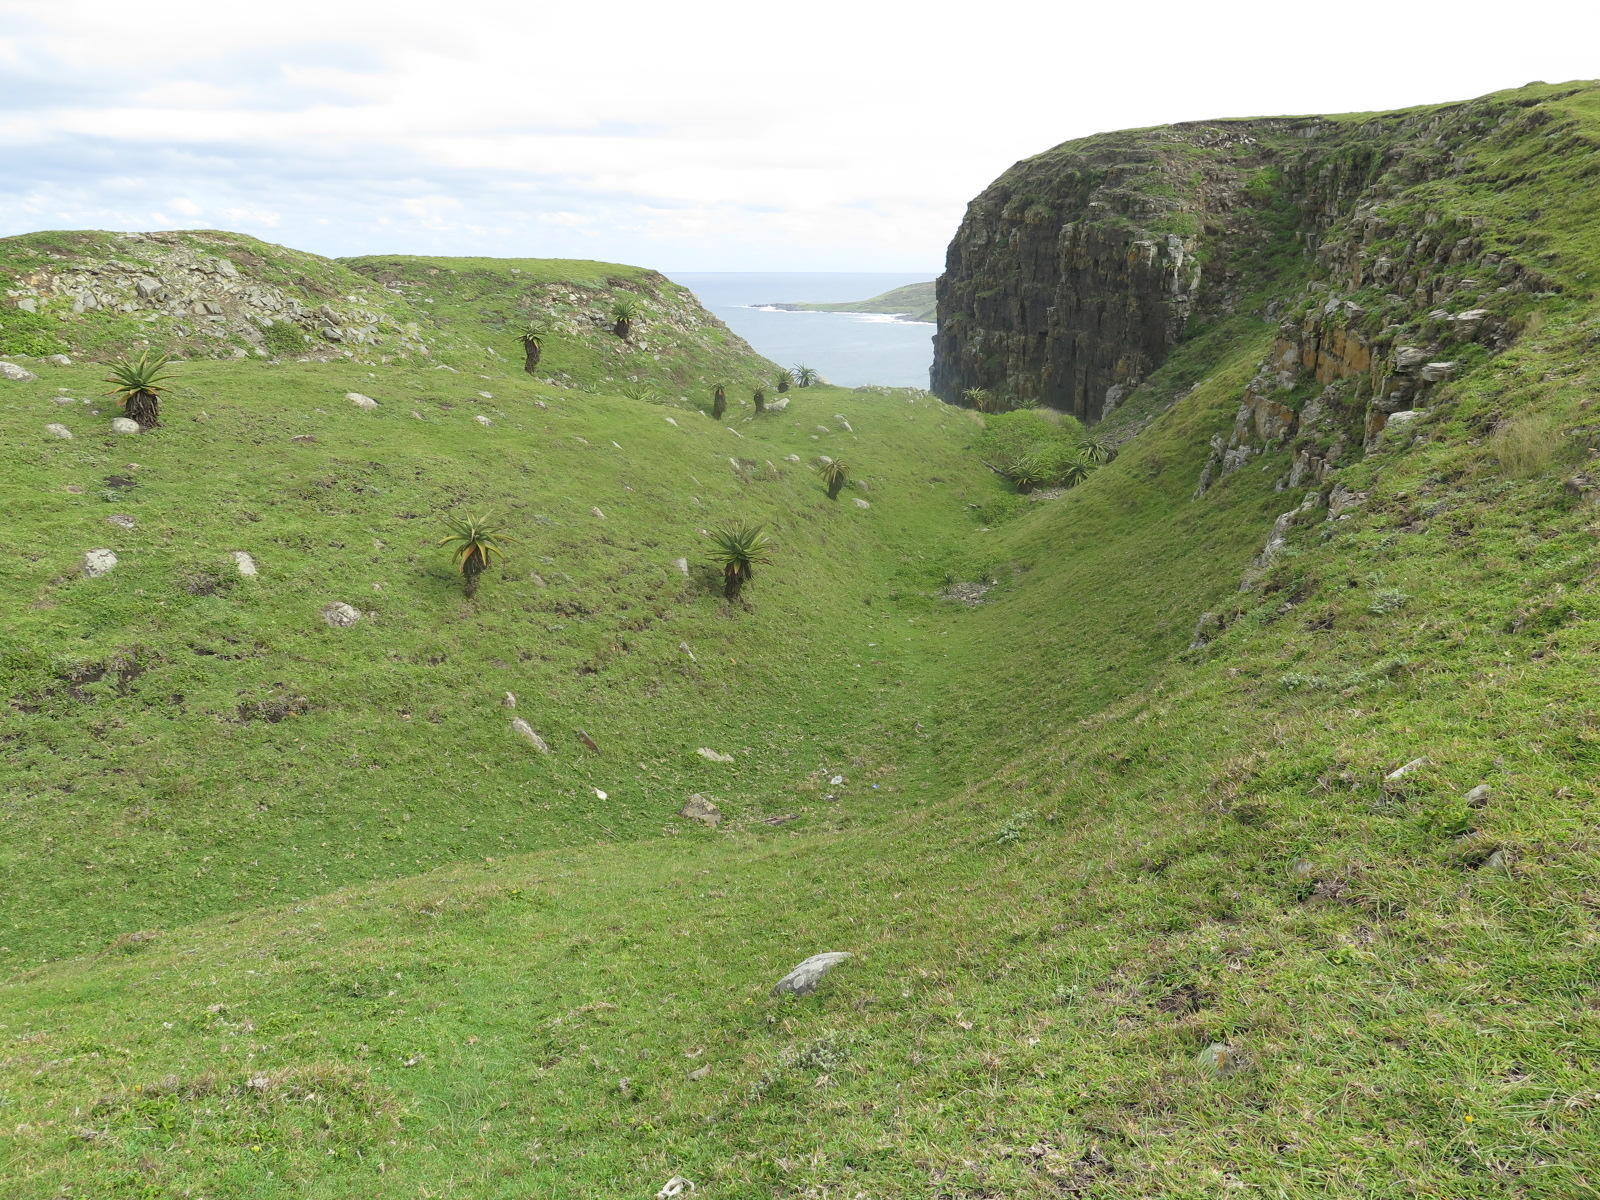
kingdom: Plantae
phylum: Tracheophyta
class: Liliopsida
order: Asparagales
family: Asphodelaceae
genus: Aloe
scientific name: Aloe ferox
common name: Bitter aloe
